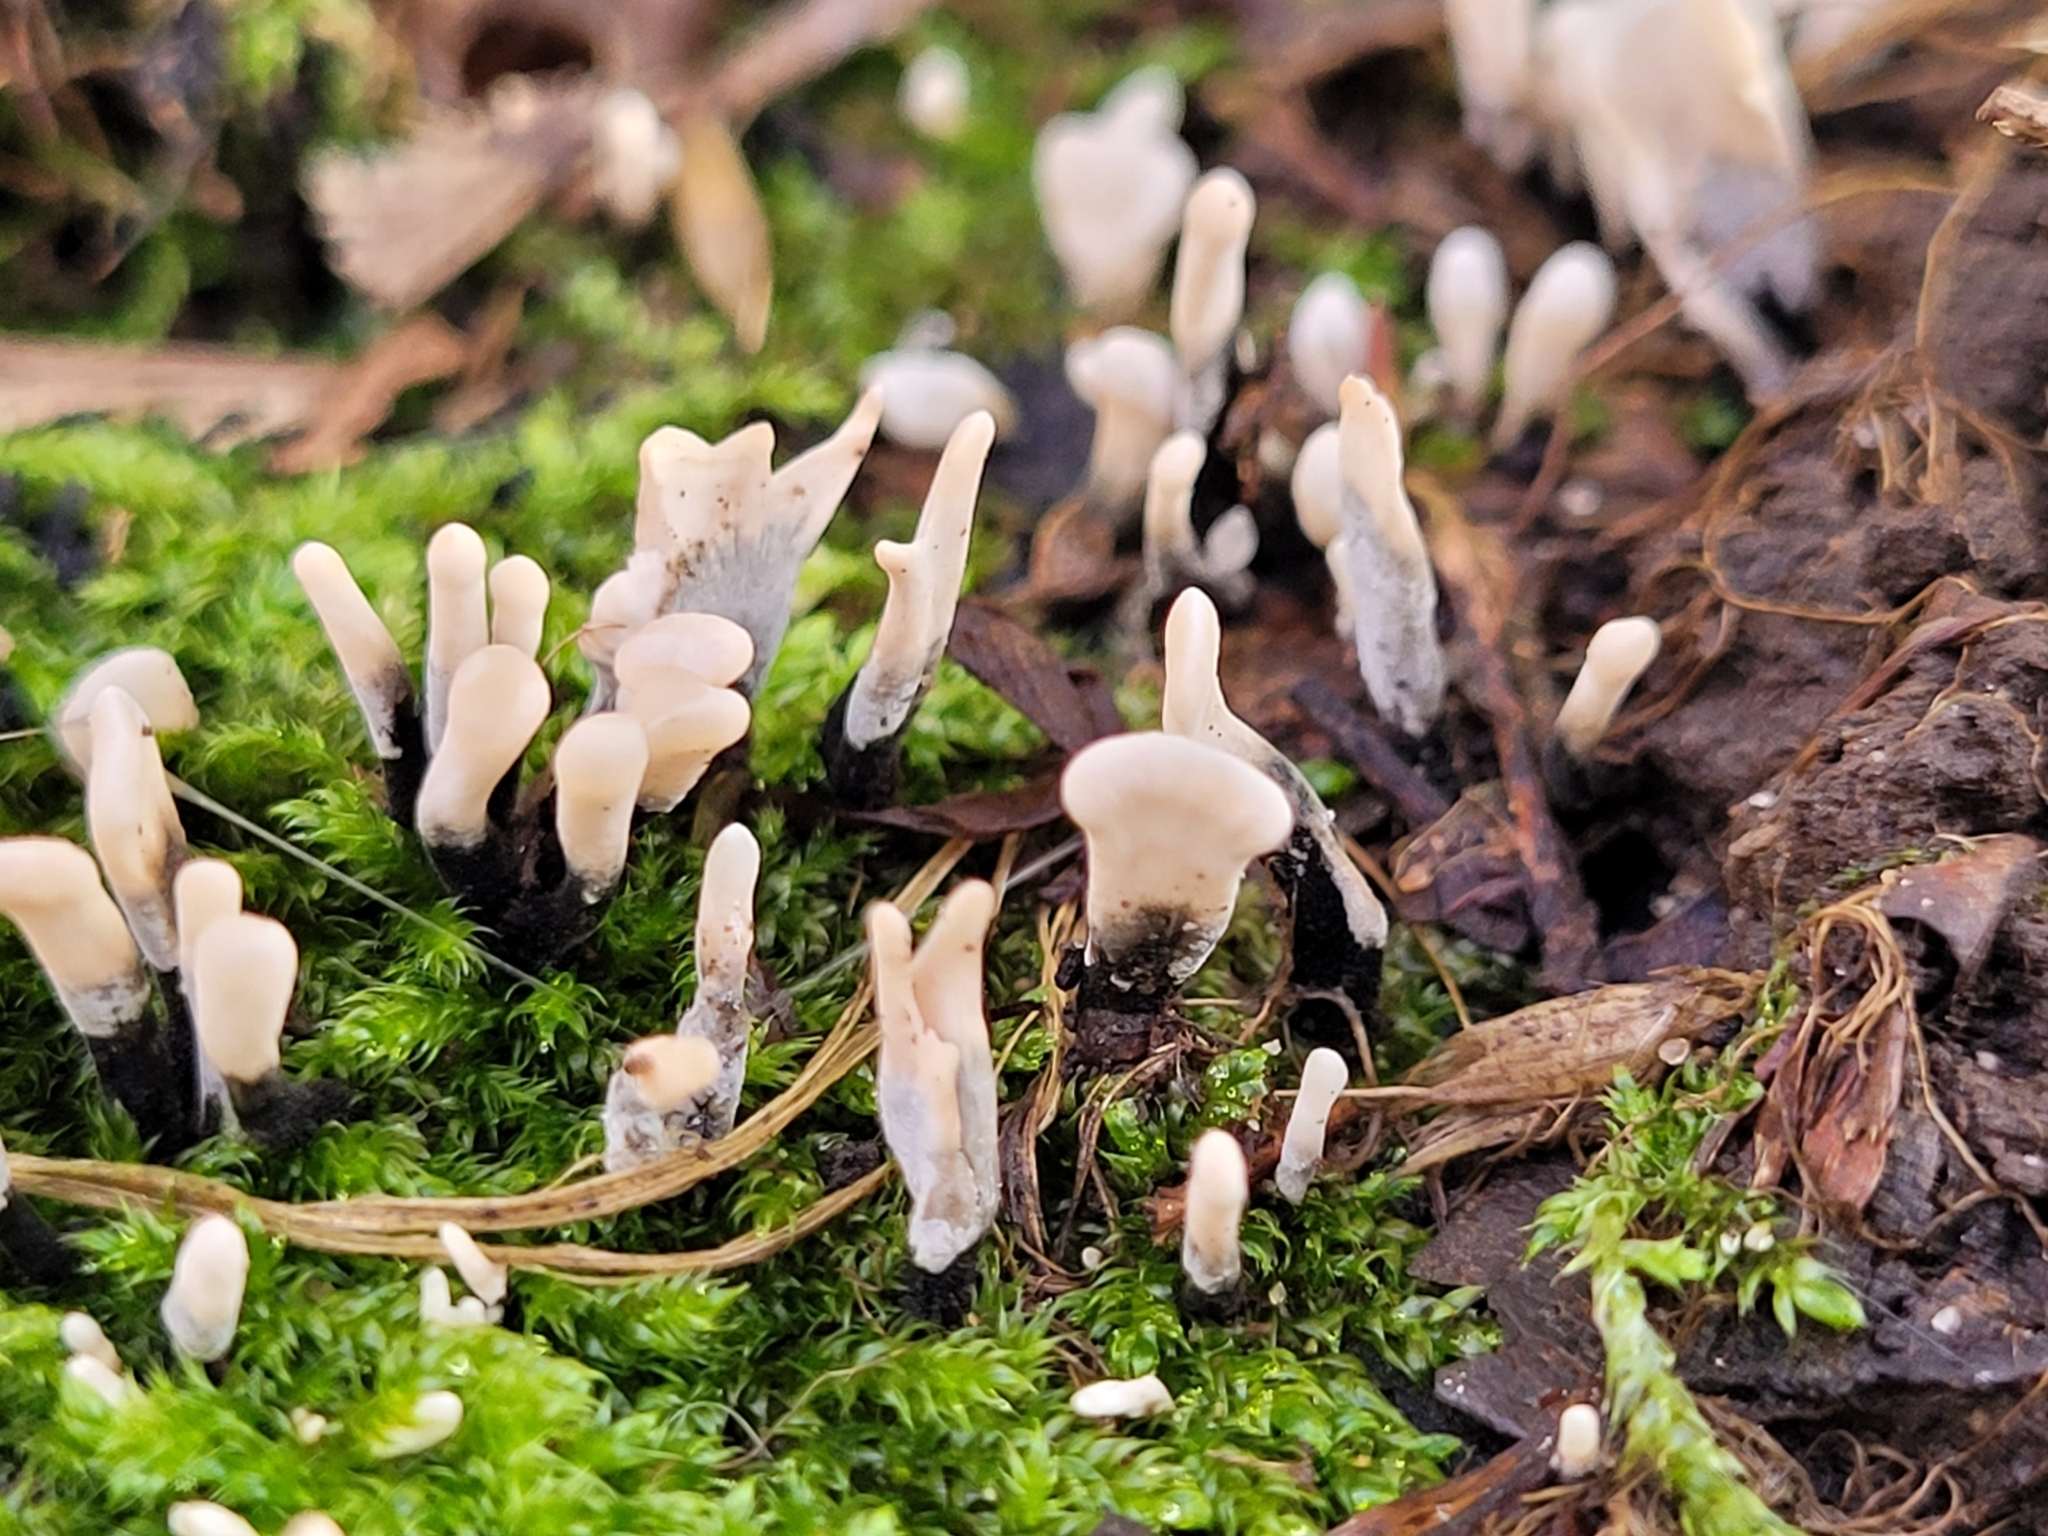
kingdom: Fungi
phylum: Ascomycota
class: Sordariomycetes
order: Xylariales
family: Xylariaceae
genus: Xylaria
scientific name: Xylaria hypoxylon
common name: Candle-snuff fungus
